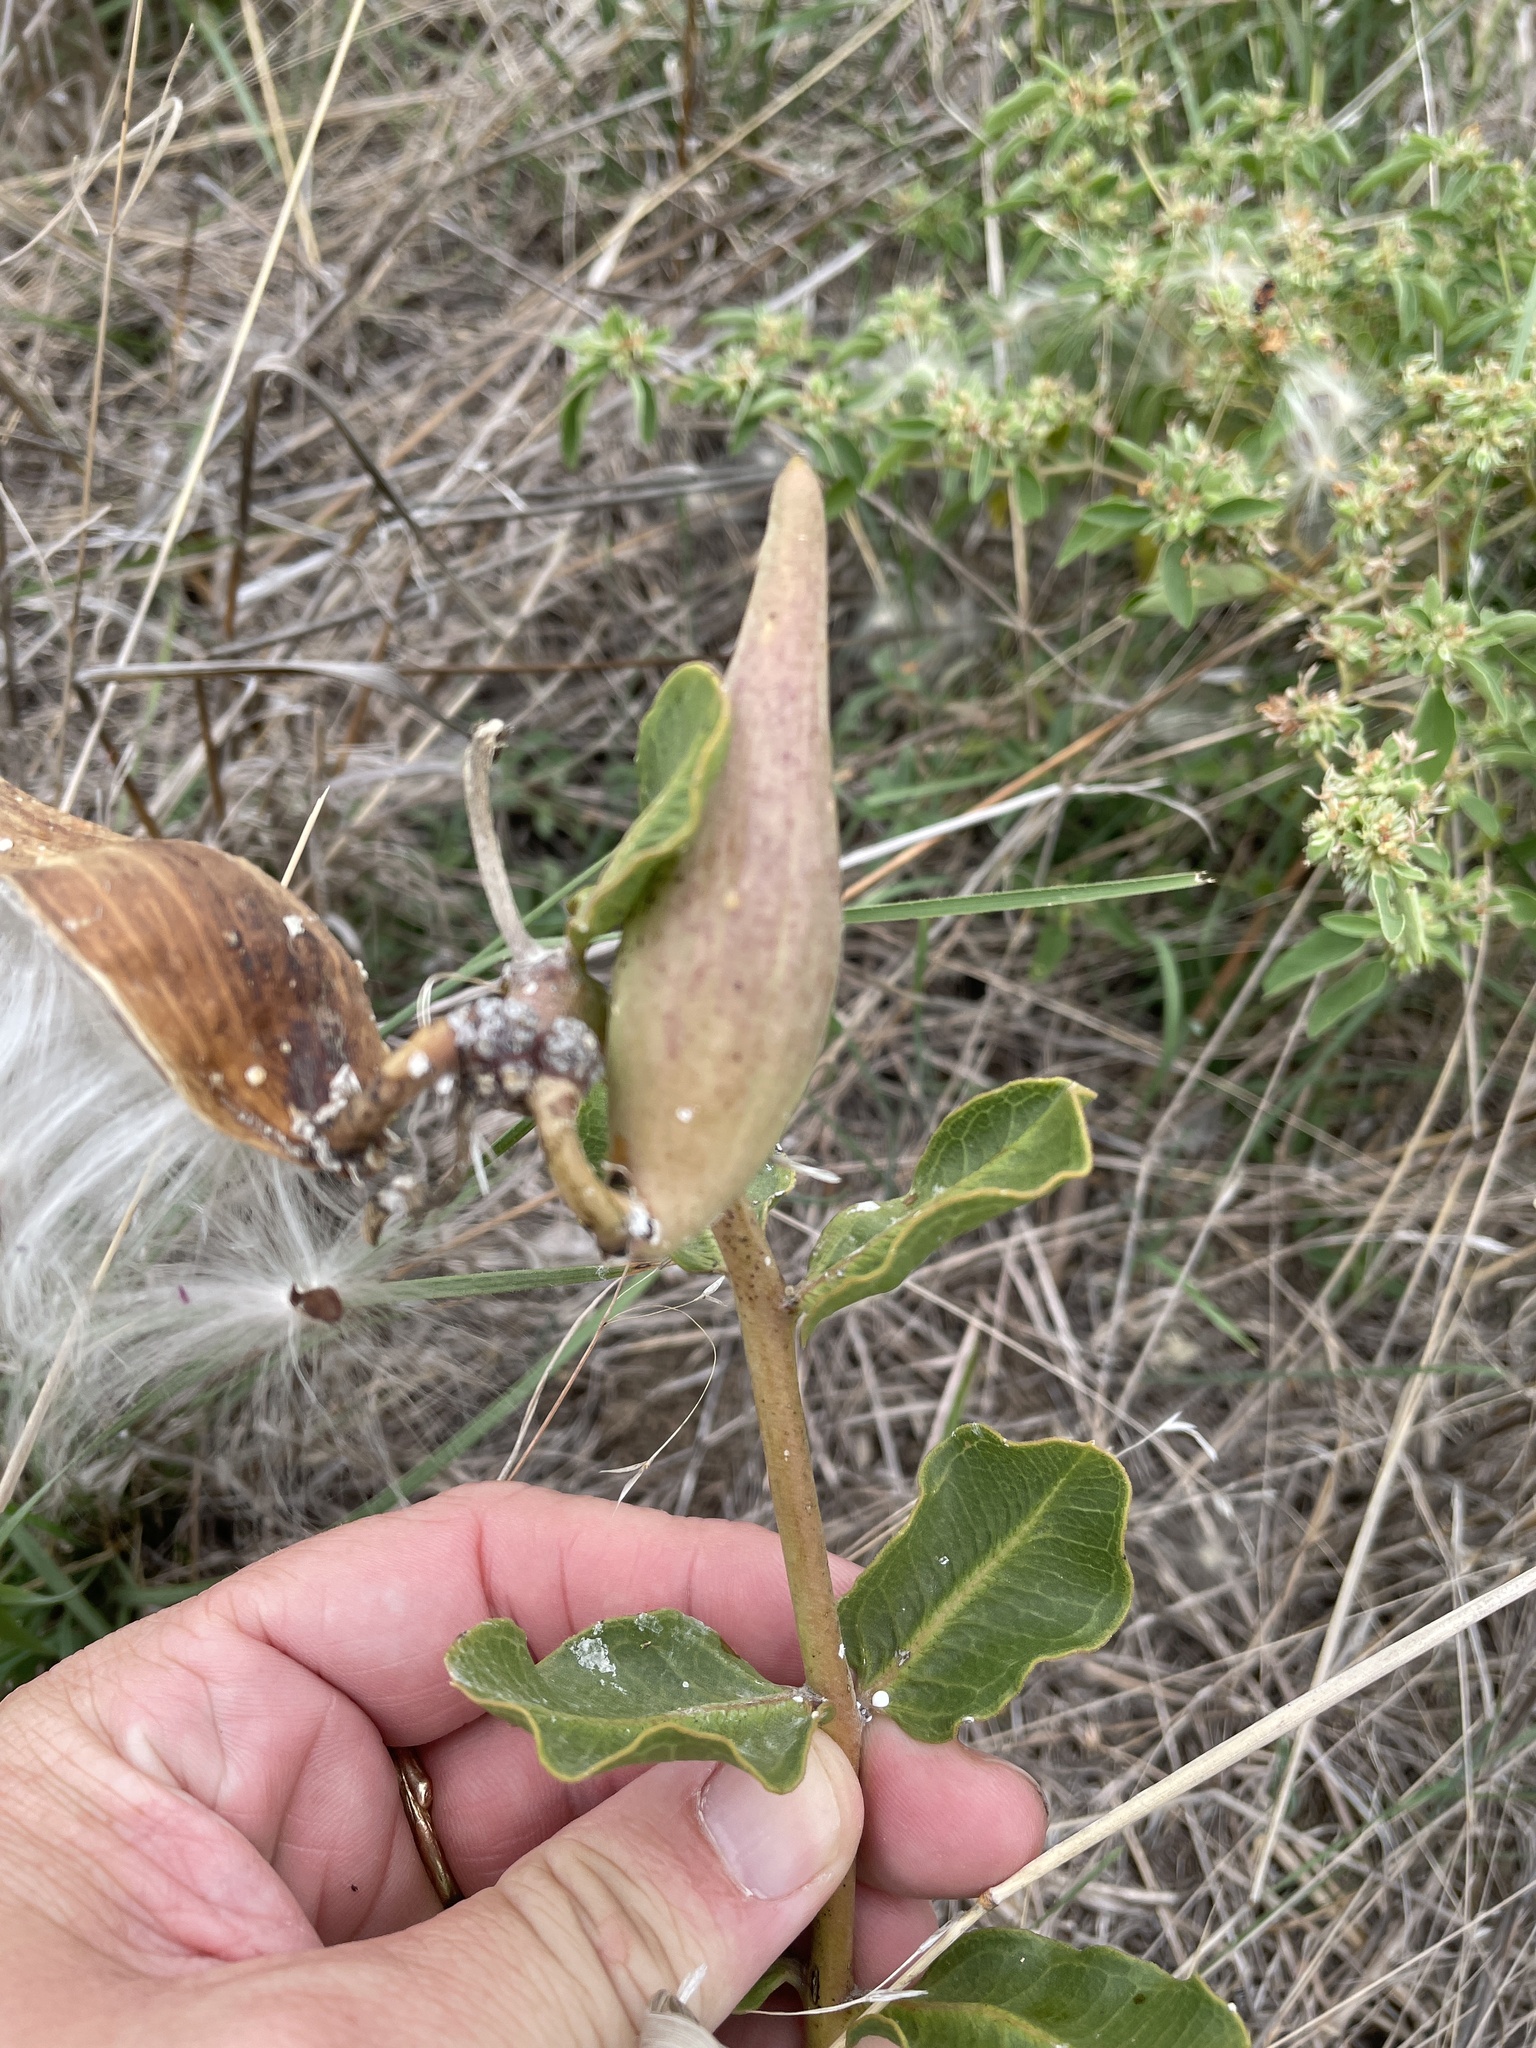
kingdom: Plantae
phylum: Tracheophyta
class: Magnoliopsida
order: Gentianales
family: Apocynaceae
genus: Asclepias
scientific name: Asclepias viridiflora
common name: Green comet milkweed
